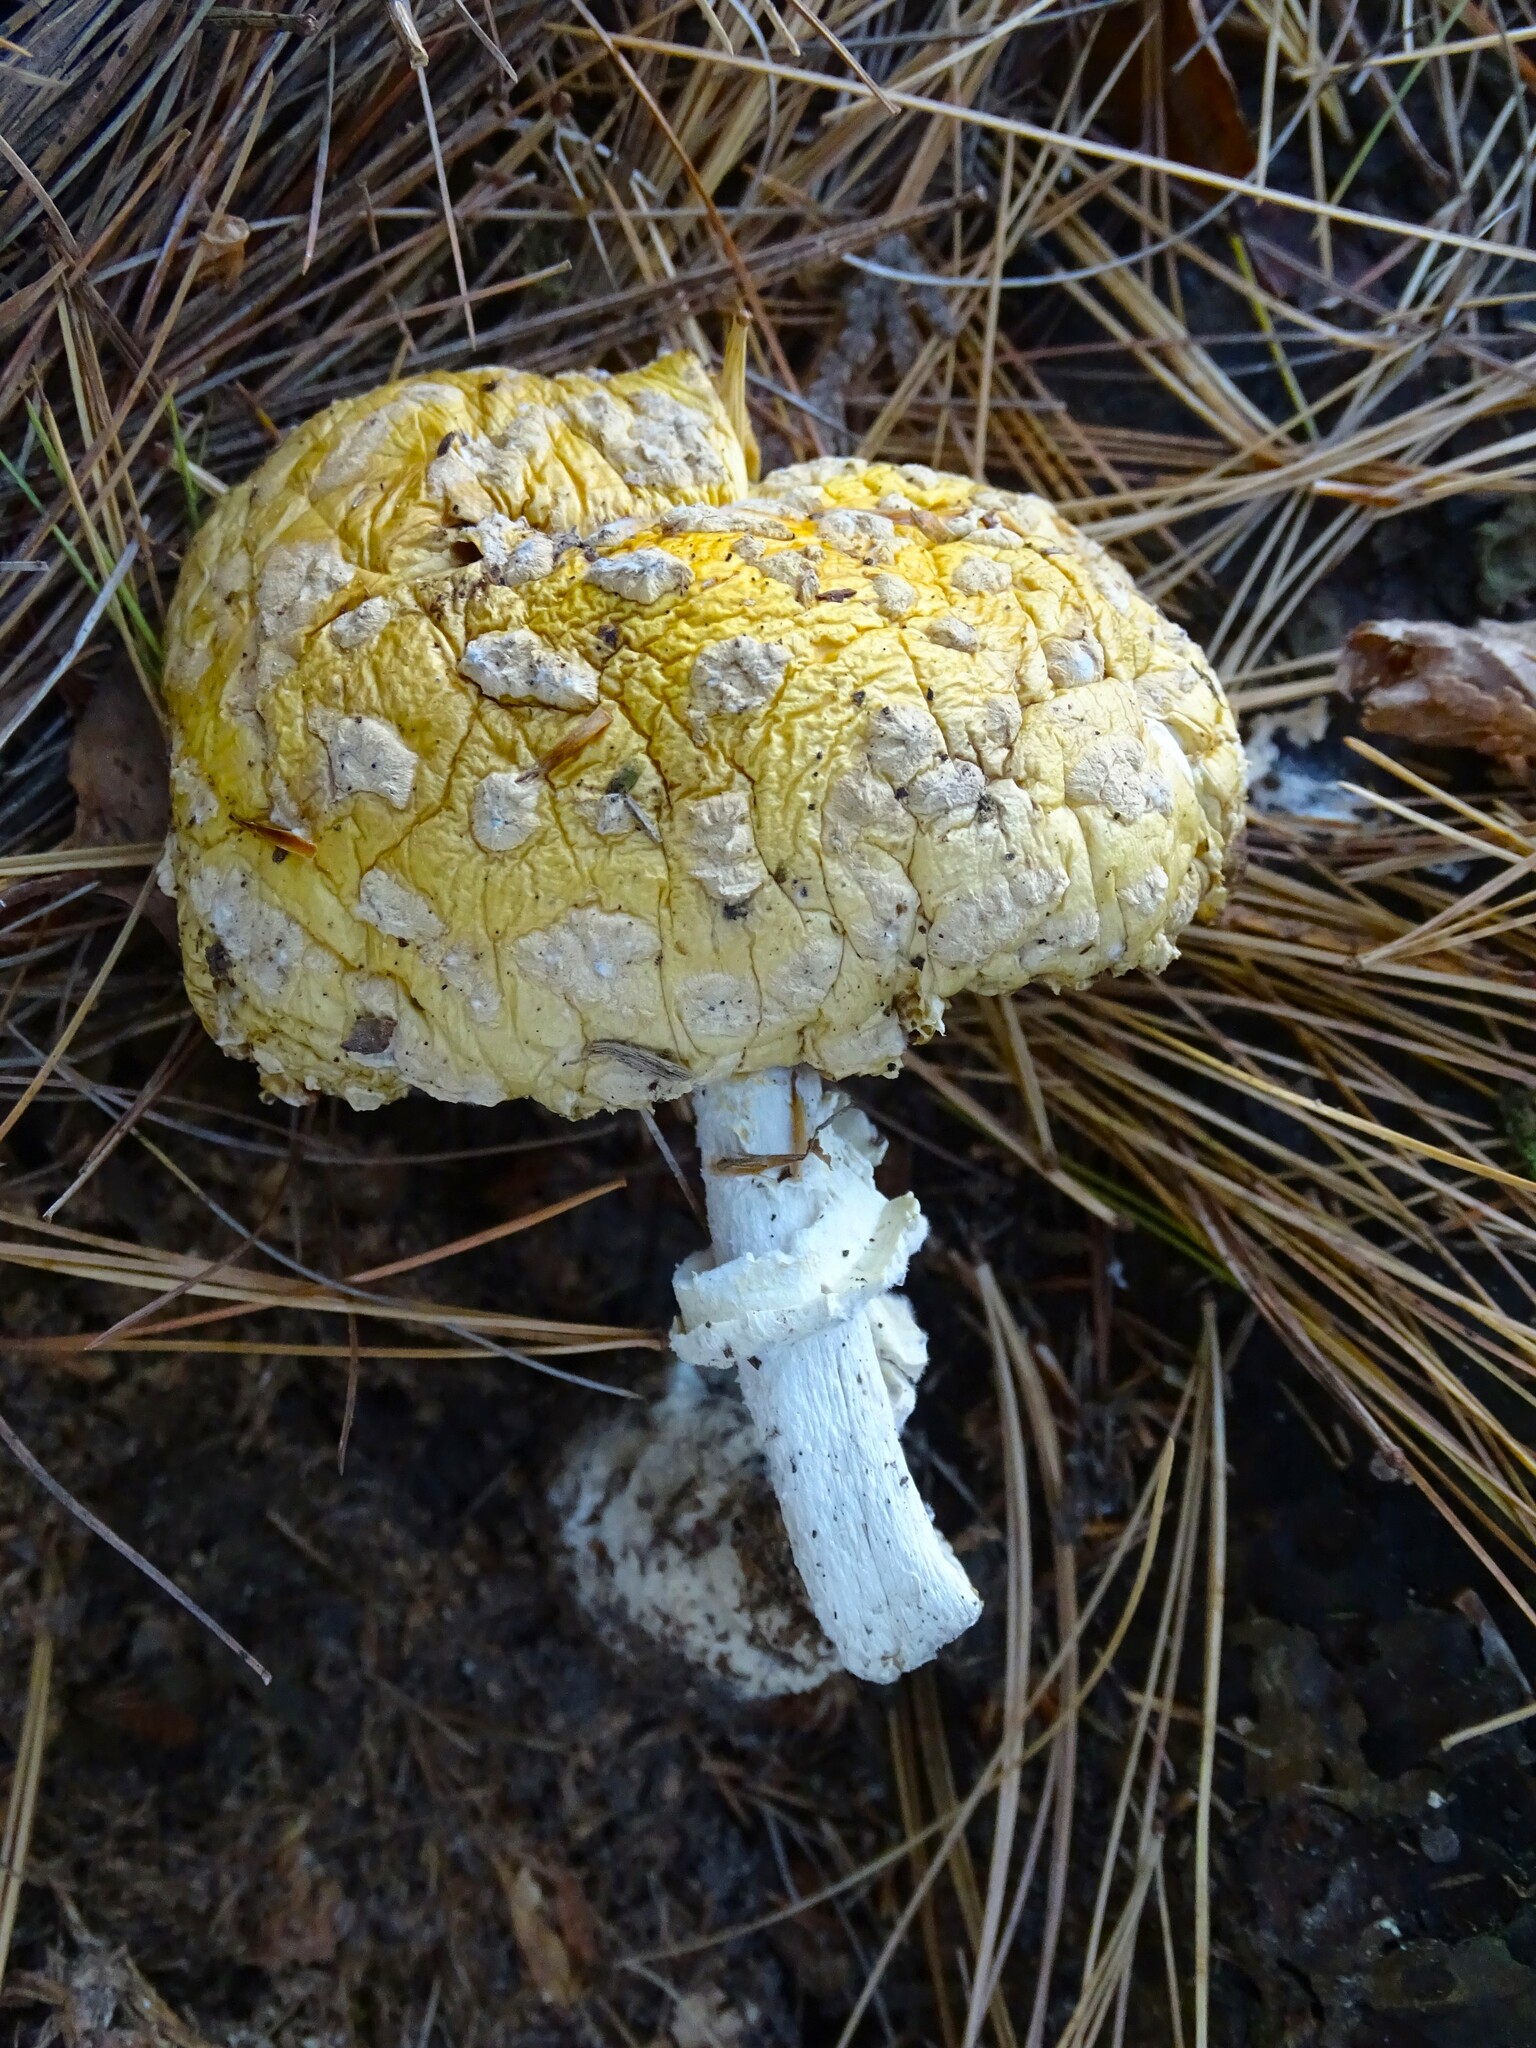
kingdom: Fungi
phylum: Basidiomycota
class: Agaricomycetes
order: Agaricales
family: Amanitaceae
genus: Amanita
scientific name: Amanita muscaria
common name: Fly agaric
